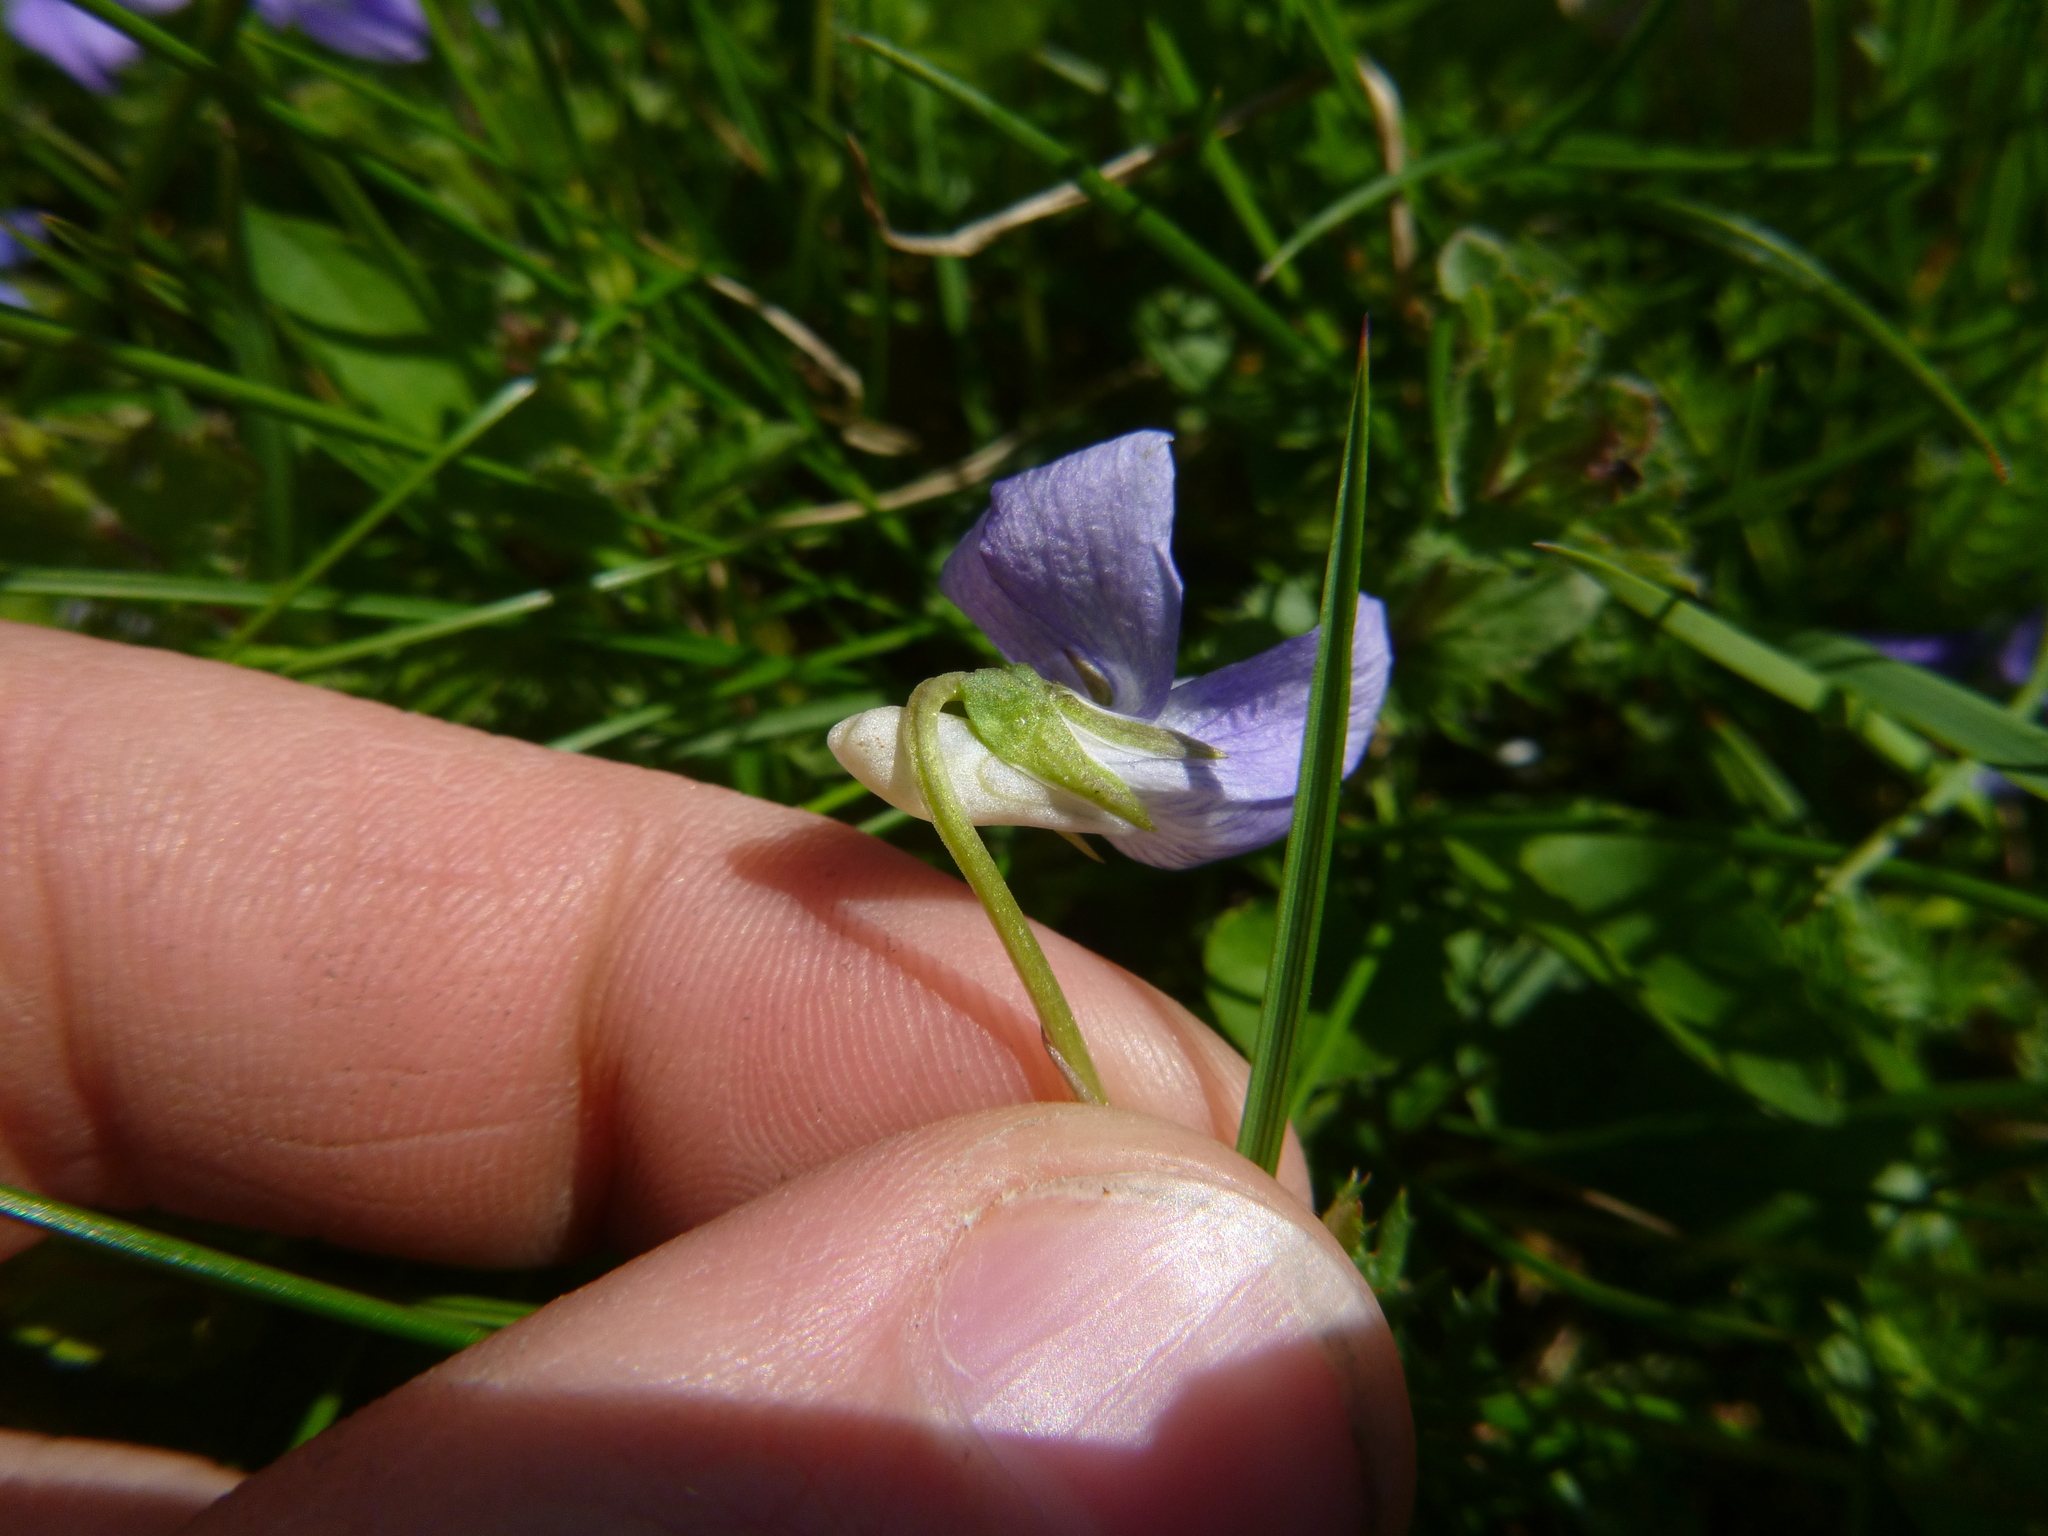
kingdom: Plantae
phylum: Tracheophyta
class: Magnoliopsida
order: Malpighiales
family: Violaceae
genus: Viola
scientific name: Viola riviniana
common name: Common dog-violet
